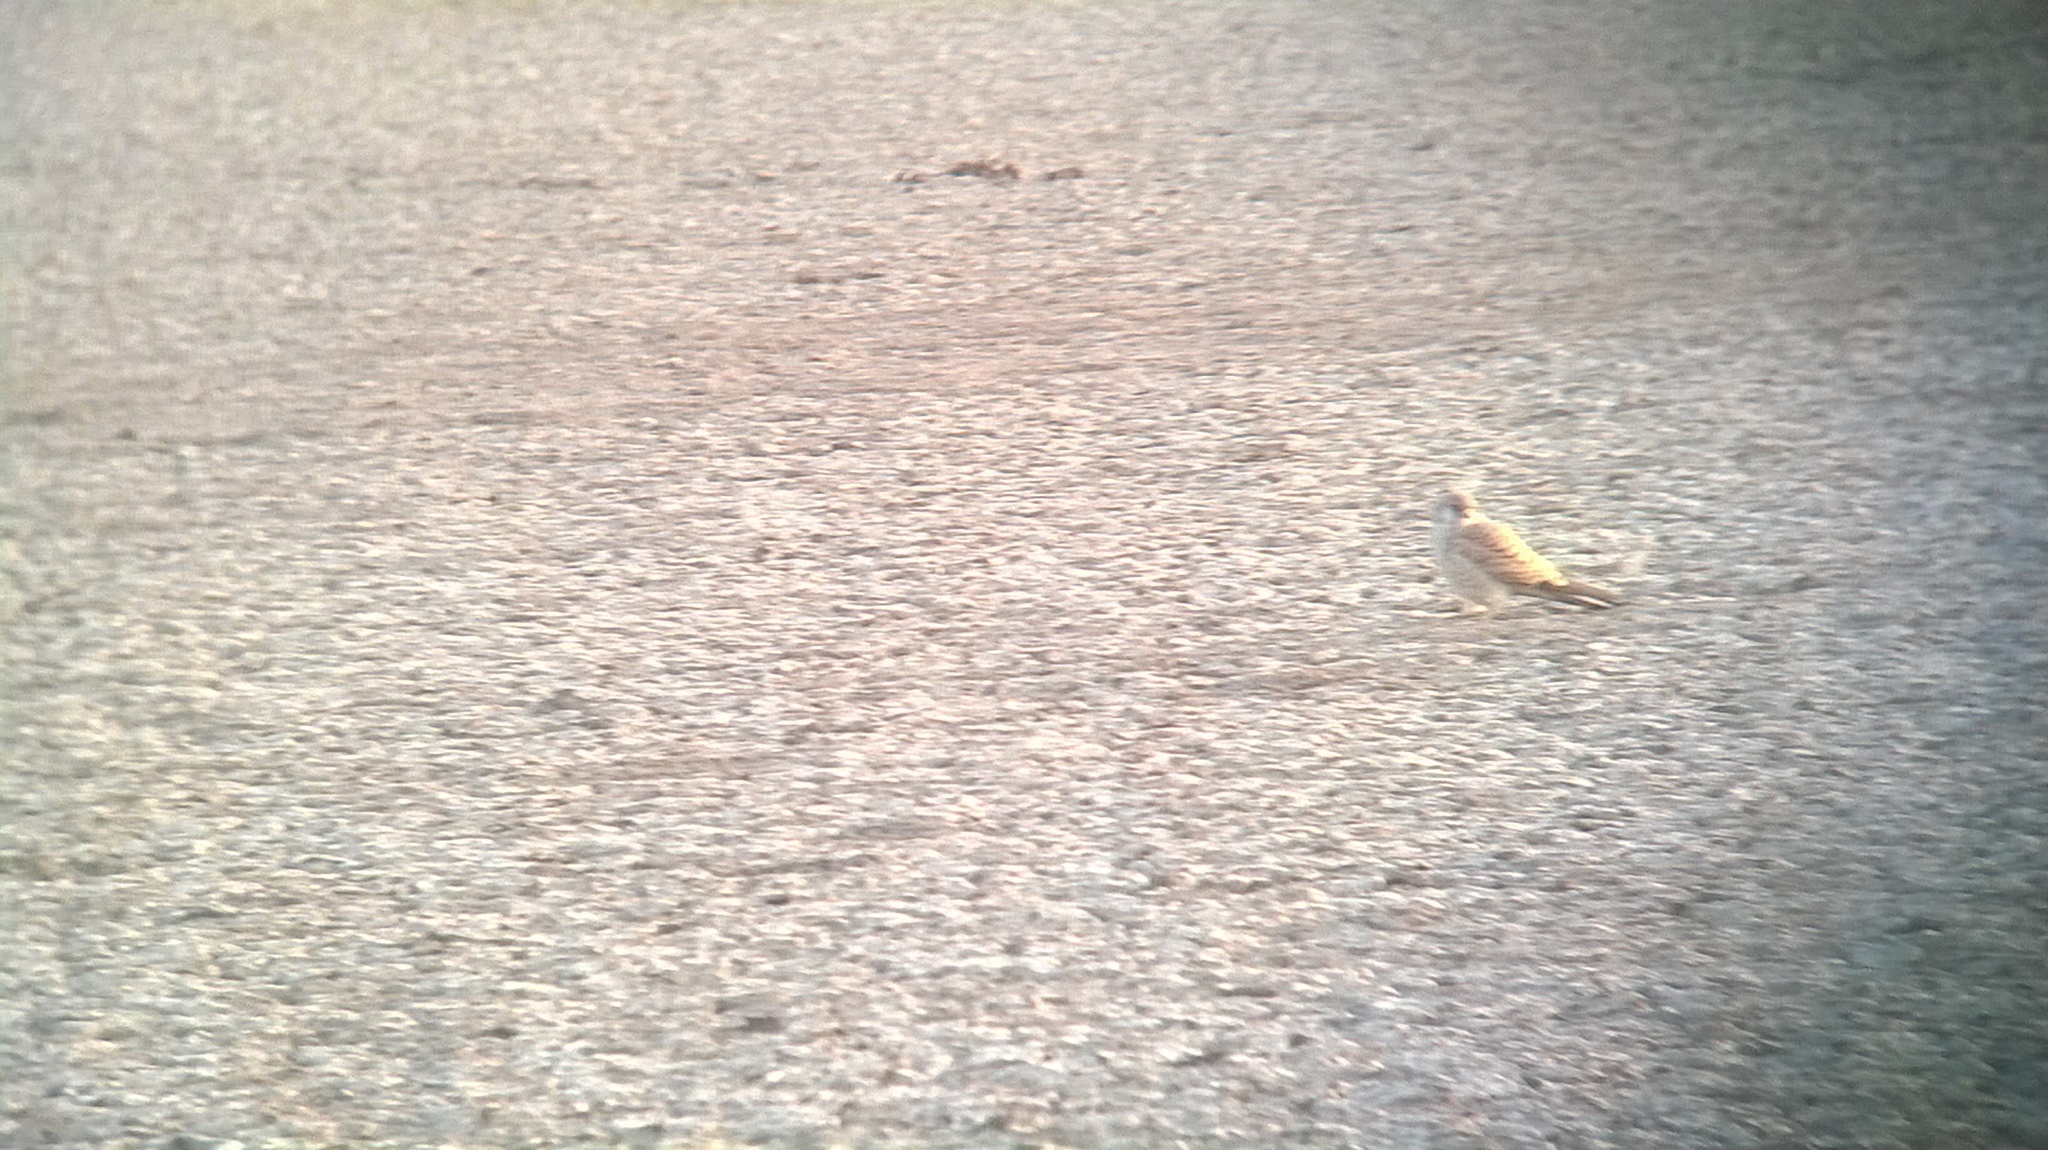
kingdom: Animalia
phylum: Chordata
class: Aves
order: Falconiformes
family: Falconidae
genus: Falco
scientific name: Falco naumanni
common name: Lesser kestrel
